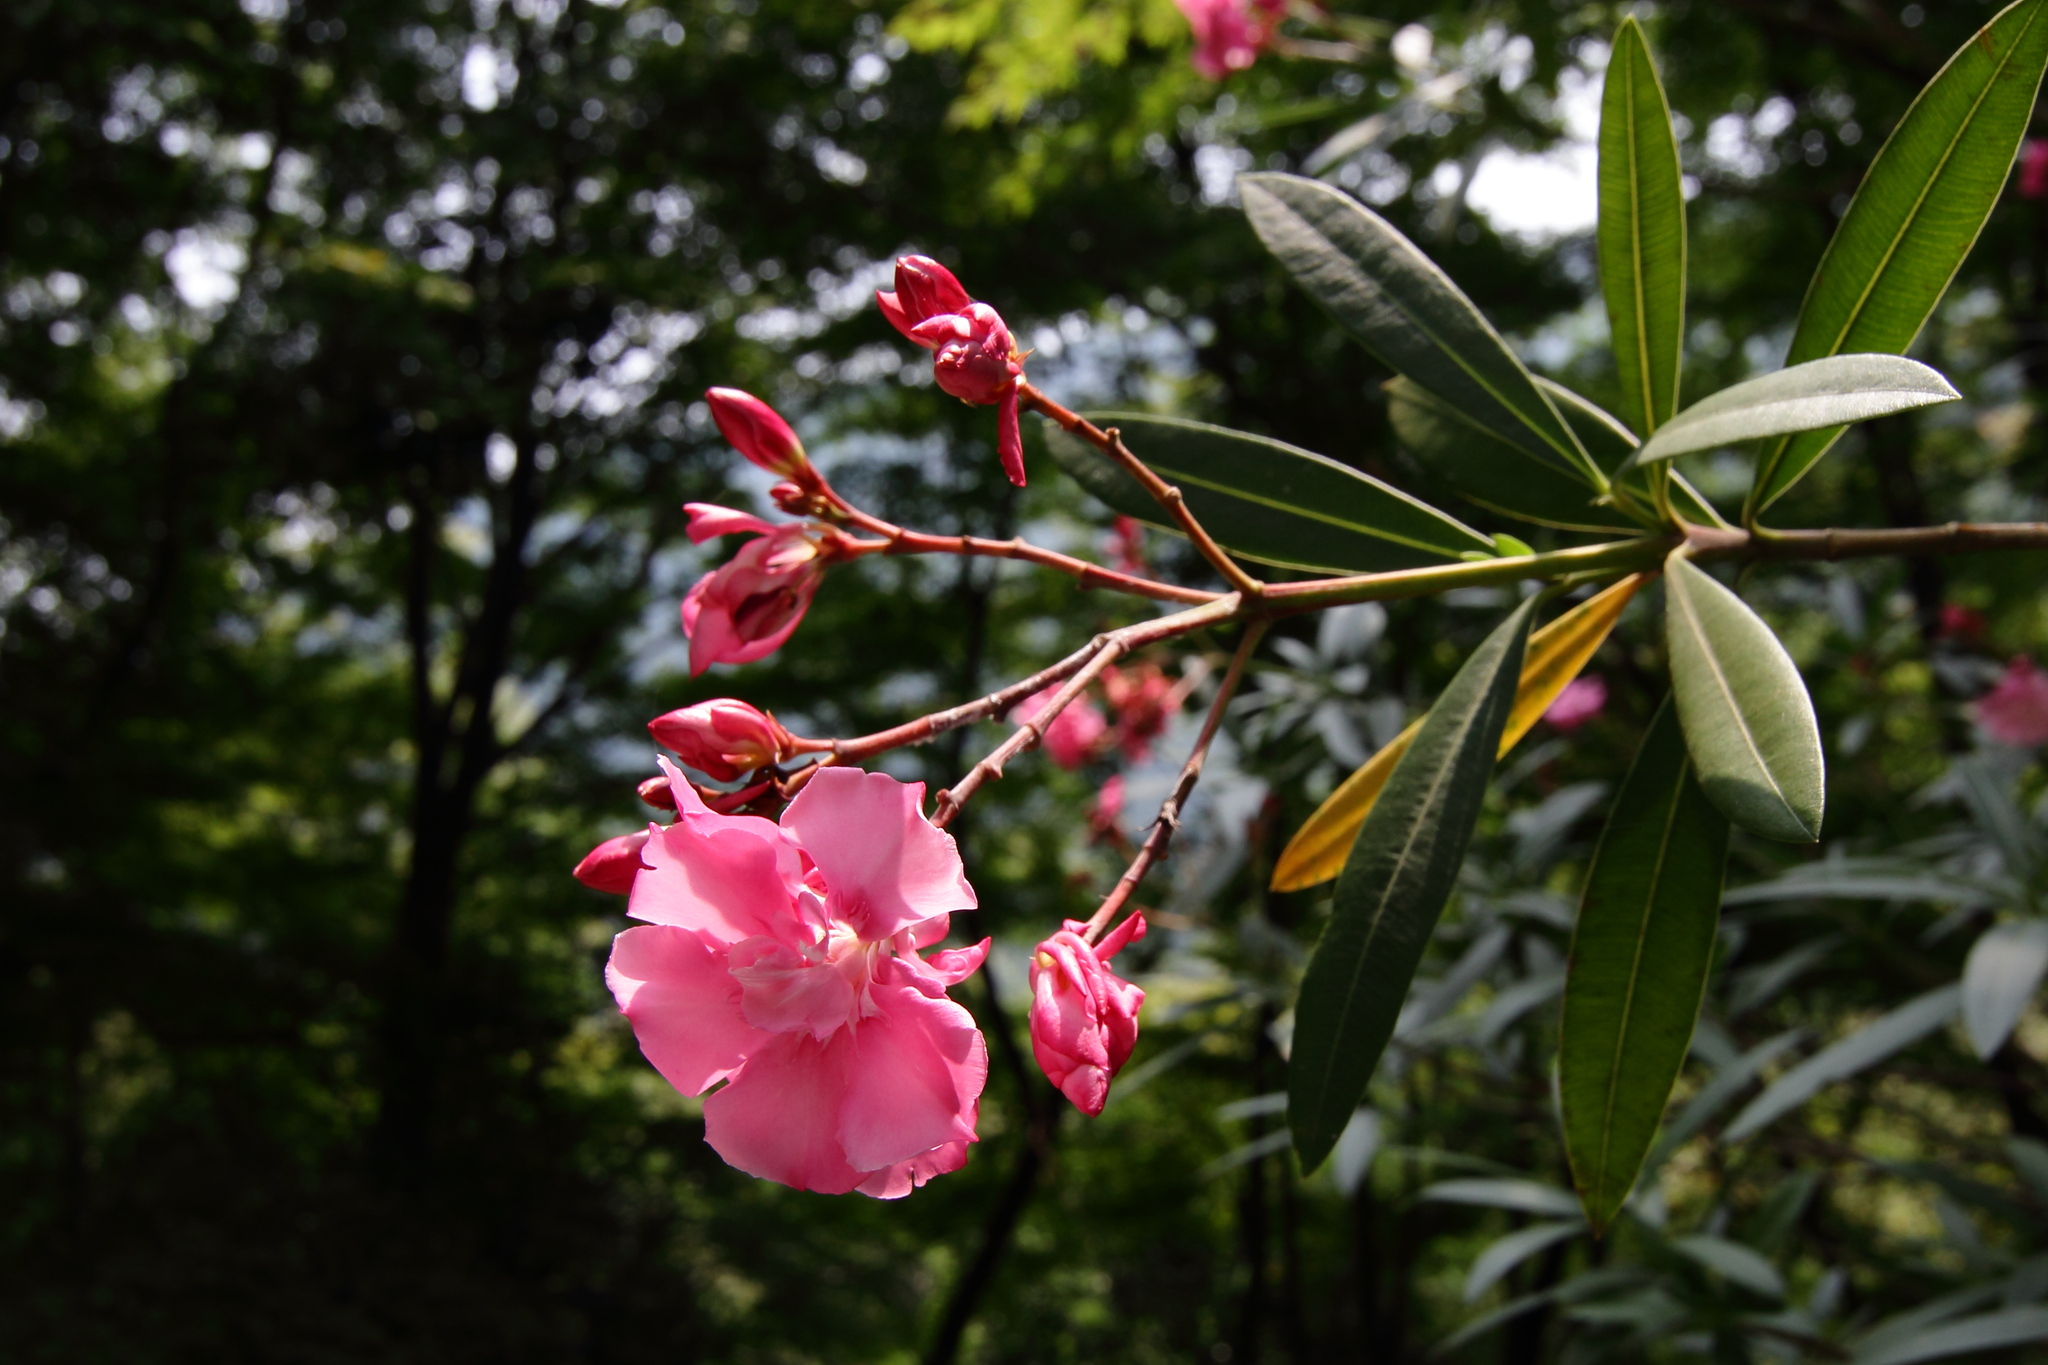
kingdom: Plantae
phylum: Tracheophyta
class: Magnoliopsida
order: Gentianales
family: Apocynaceae
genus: Nerium
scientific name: Nerium oleander
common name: Oleander
